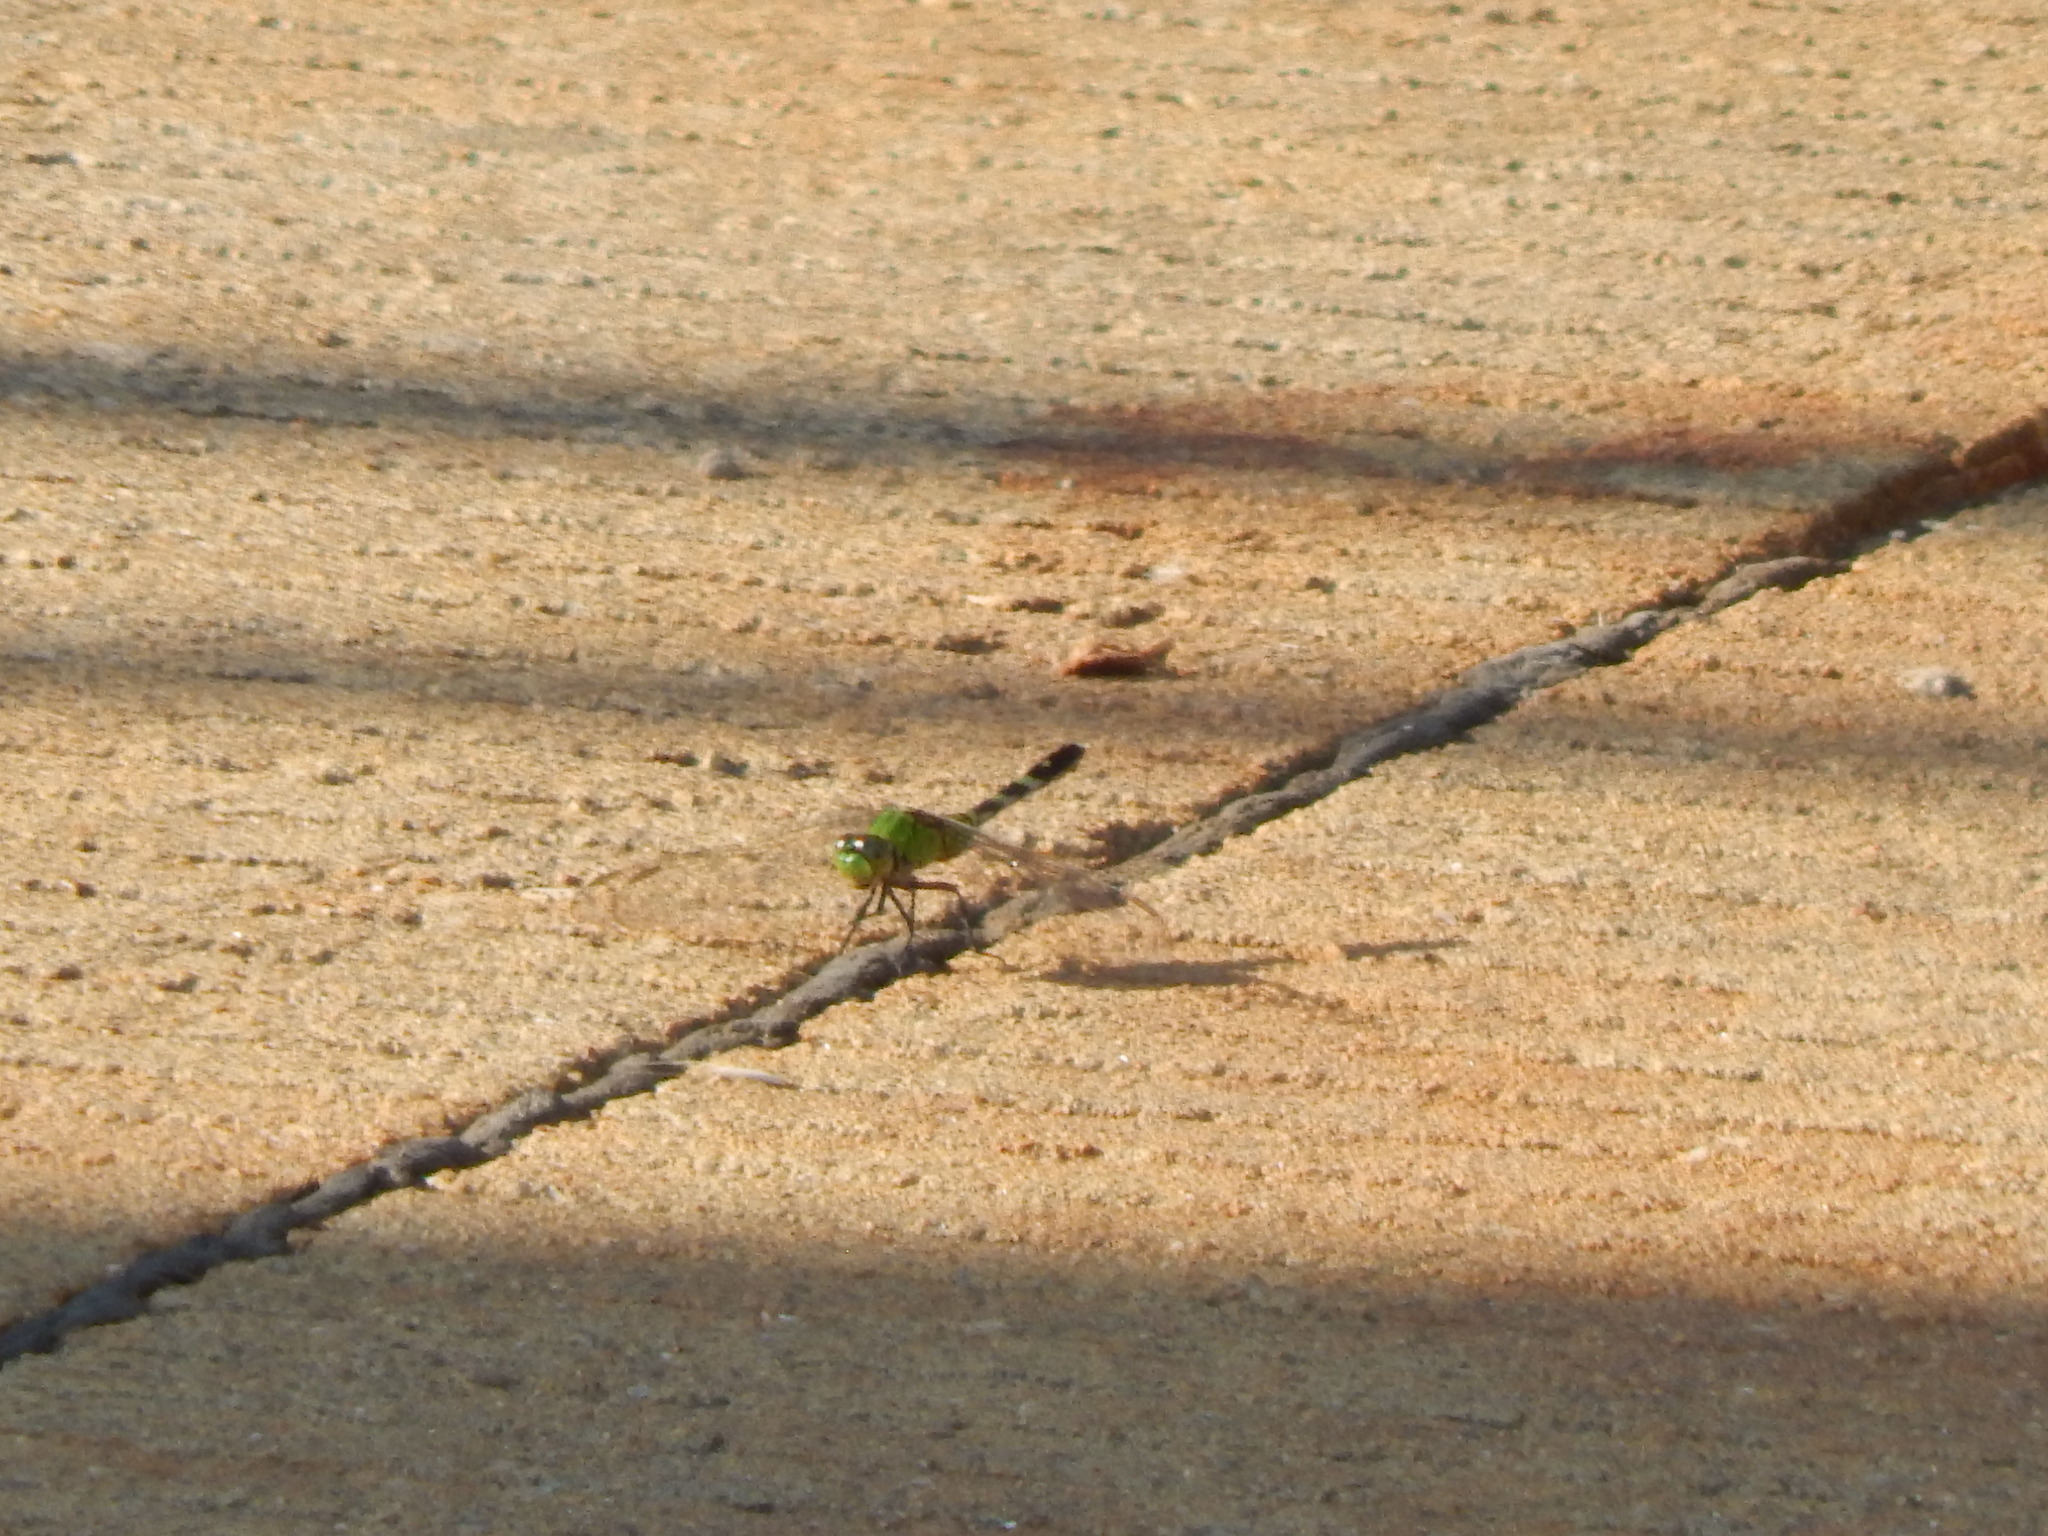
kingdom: Animalia
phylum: Arthropoda
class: Insecta
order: Odonata
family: Libellulidae
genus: Erythemis
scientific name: Erythemis simplicicollis
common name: Eastern pondhawk
